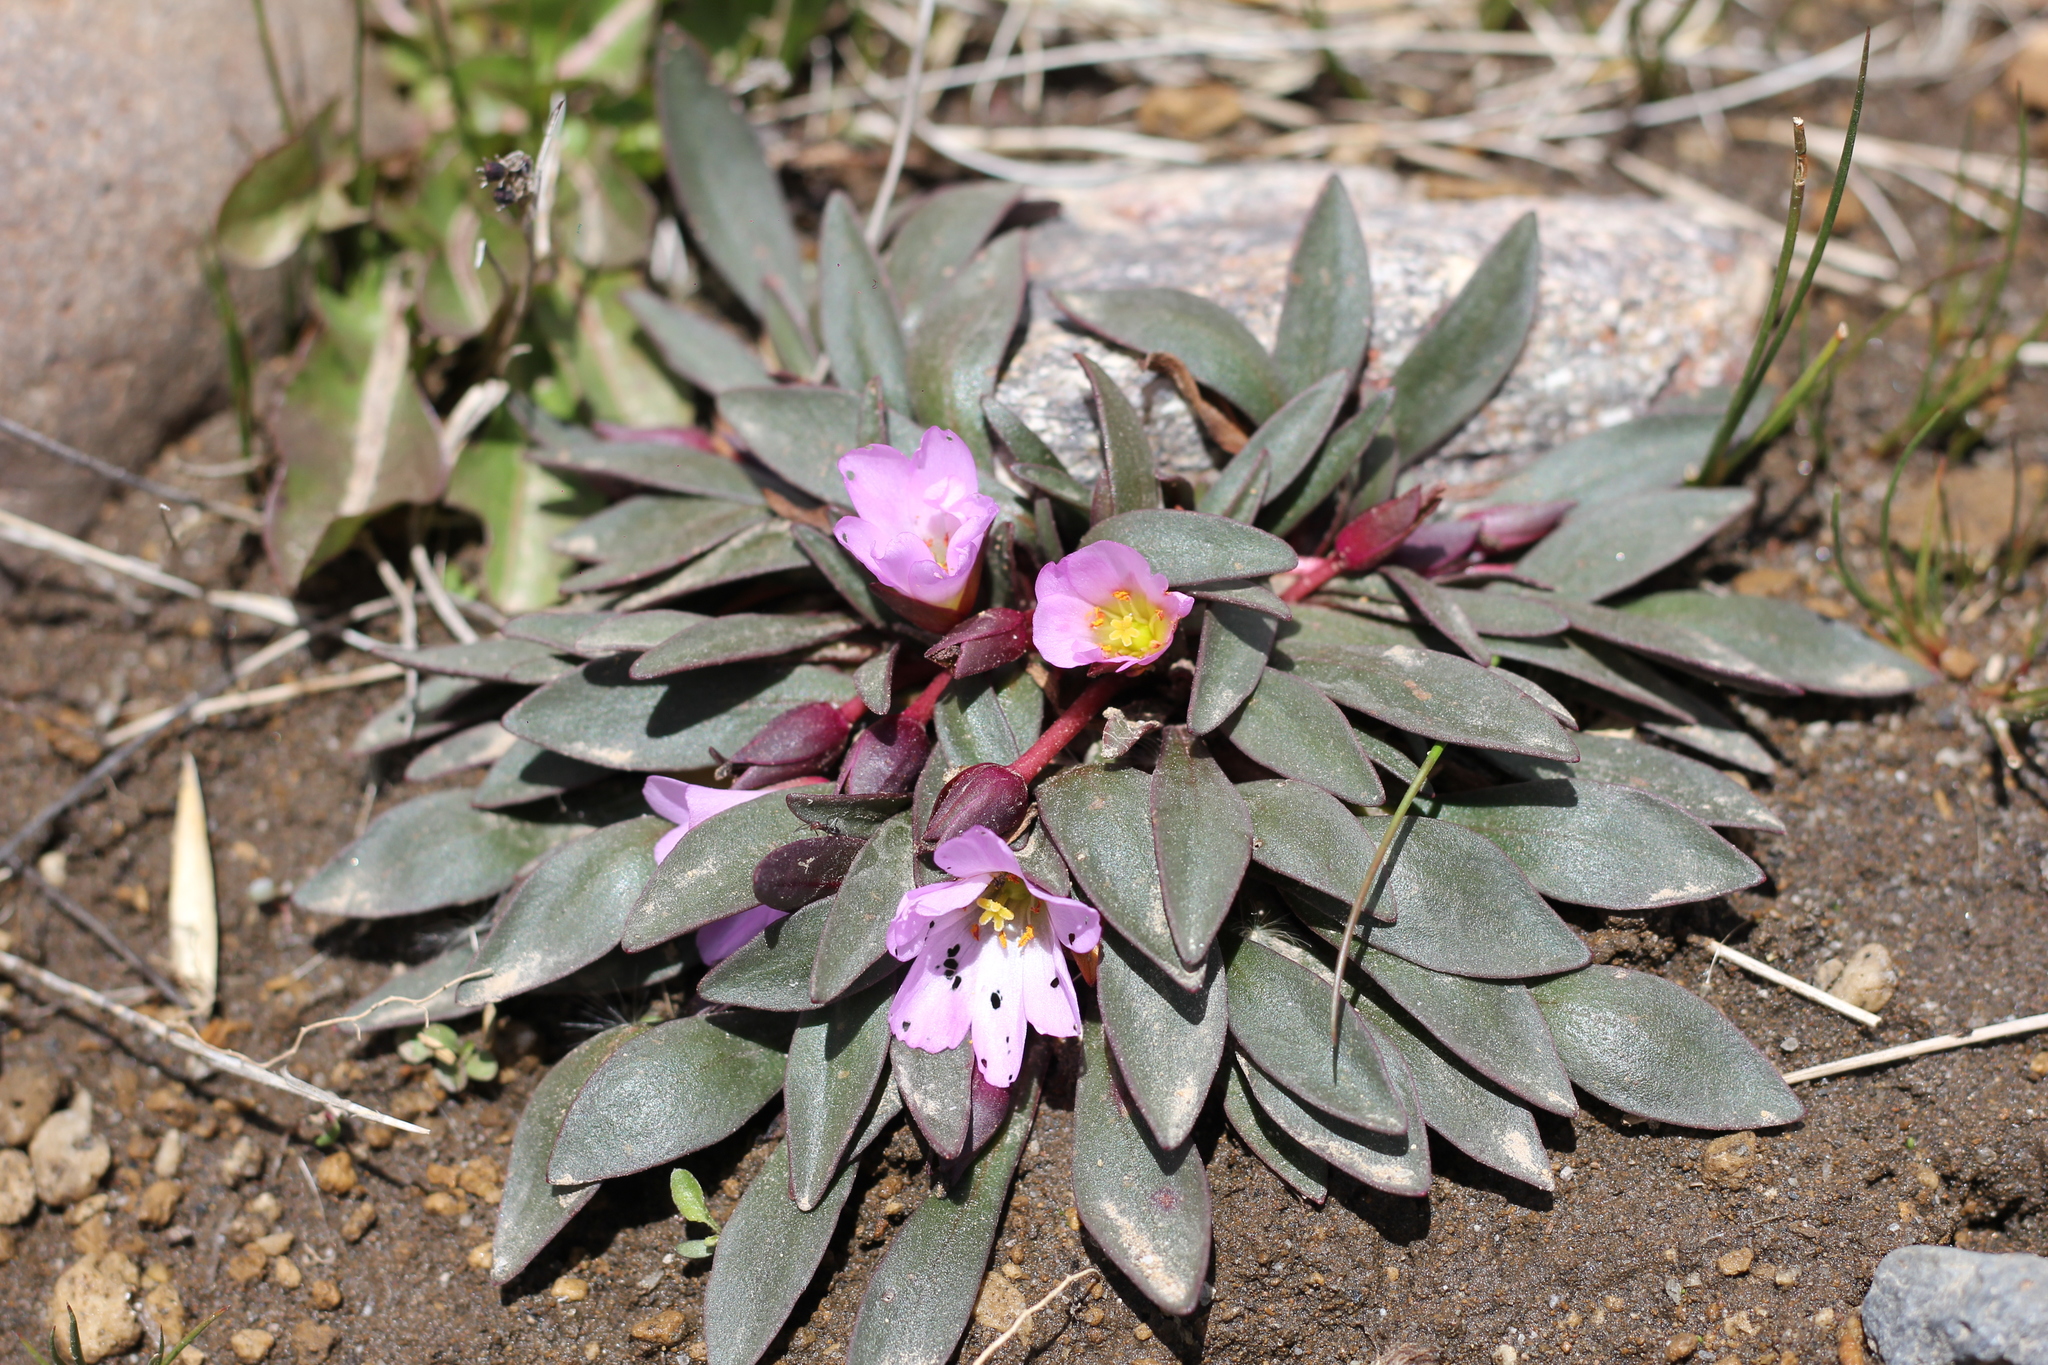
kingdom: Plantae
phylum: Tracheophyta
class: Magnoliopsida
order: Caryophyllales
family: Montiaceae
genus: Calandrinia
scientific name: Calandrinia colchaguensis
